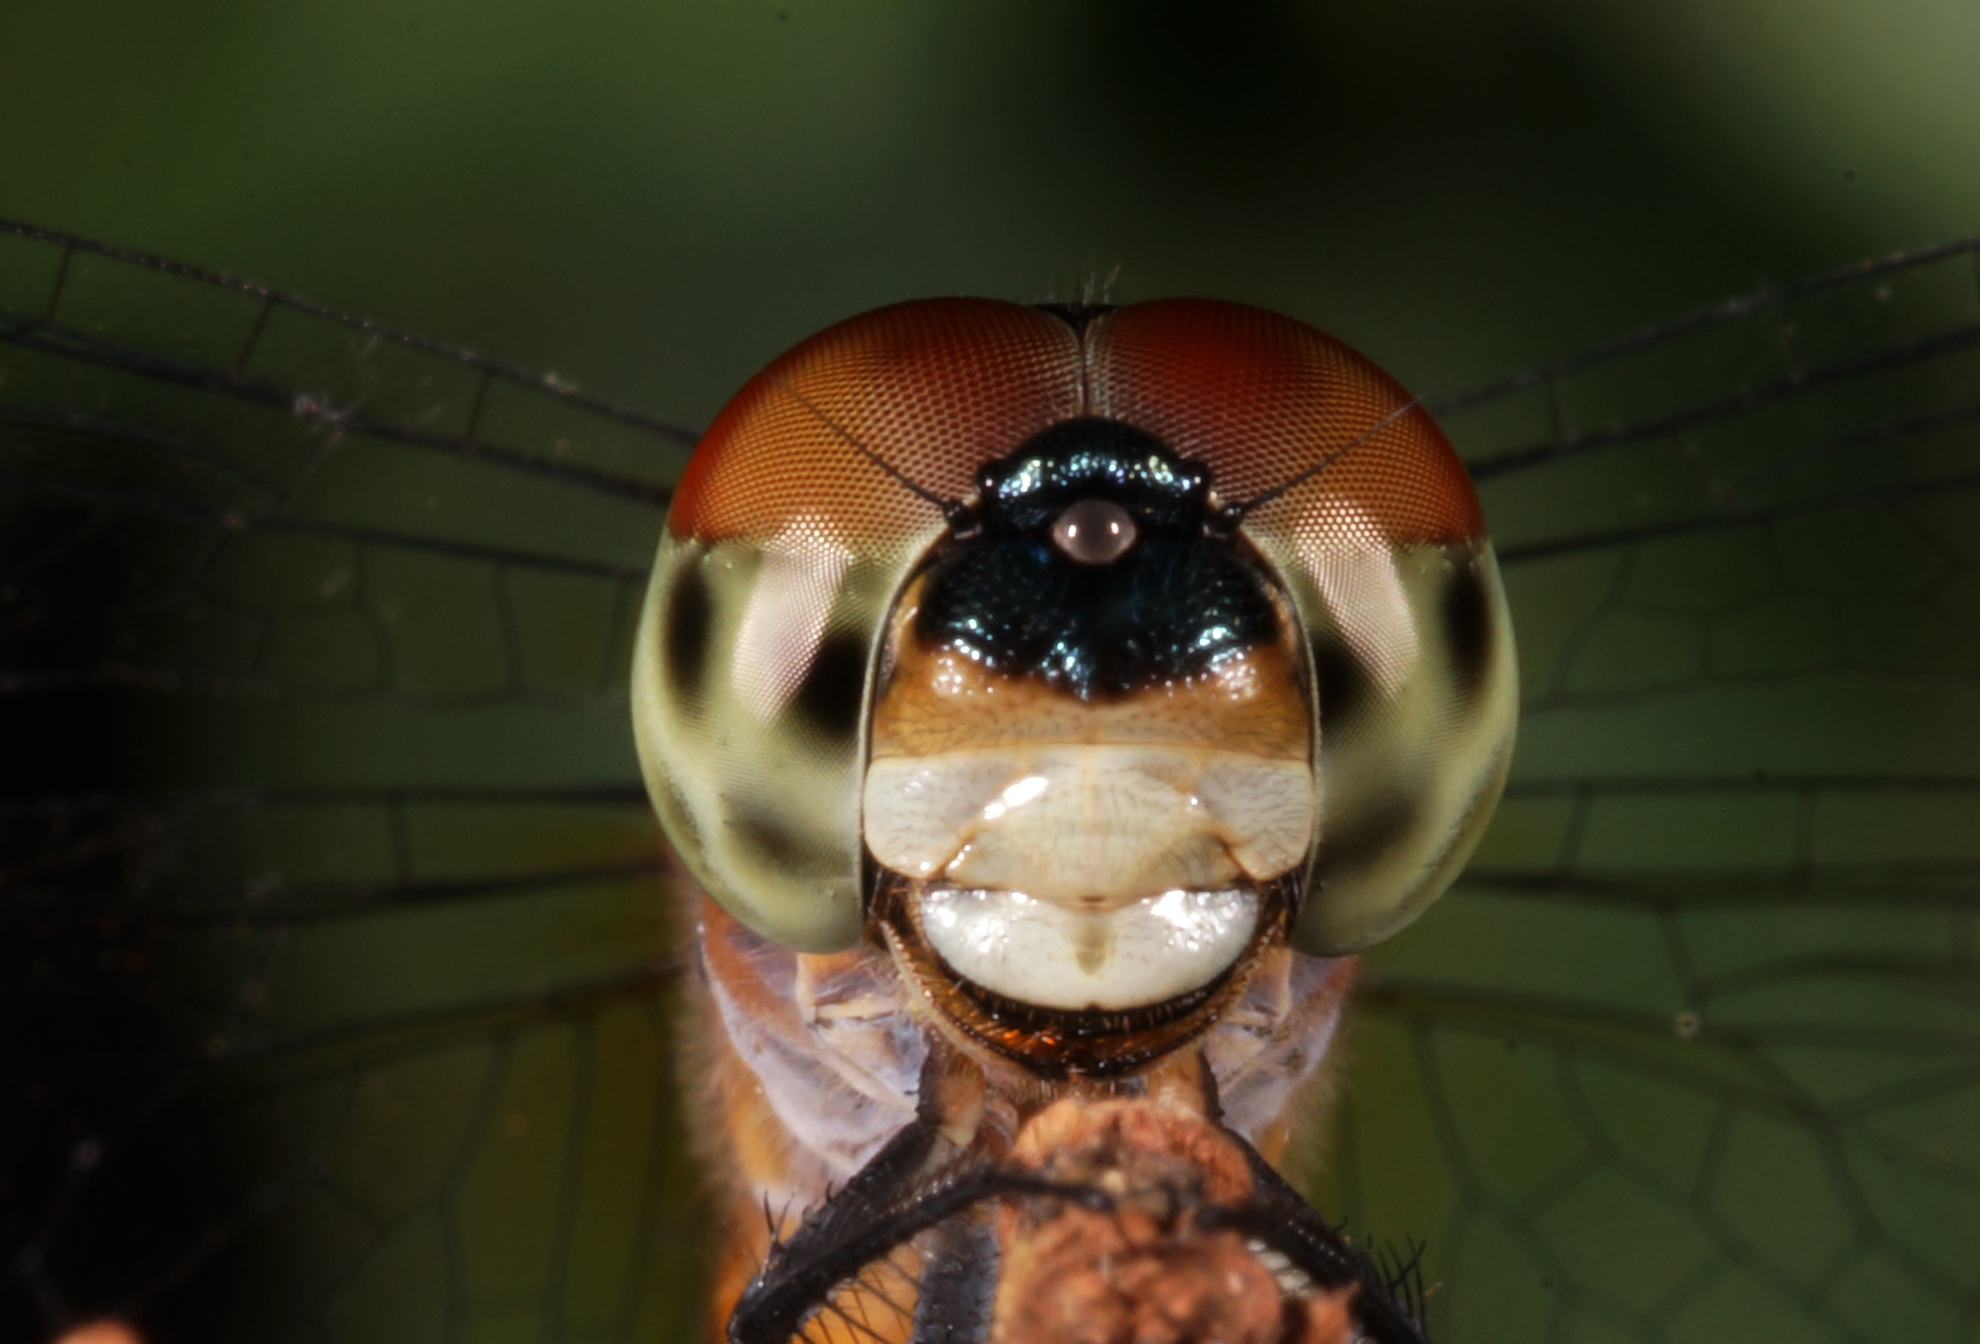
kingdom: Animalia
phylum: Arthropoda
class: Insecta
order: Odonata
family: Libellulidae
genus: Brachydiplax
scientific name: Brachydiplax chalybea
